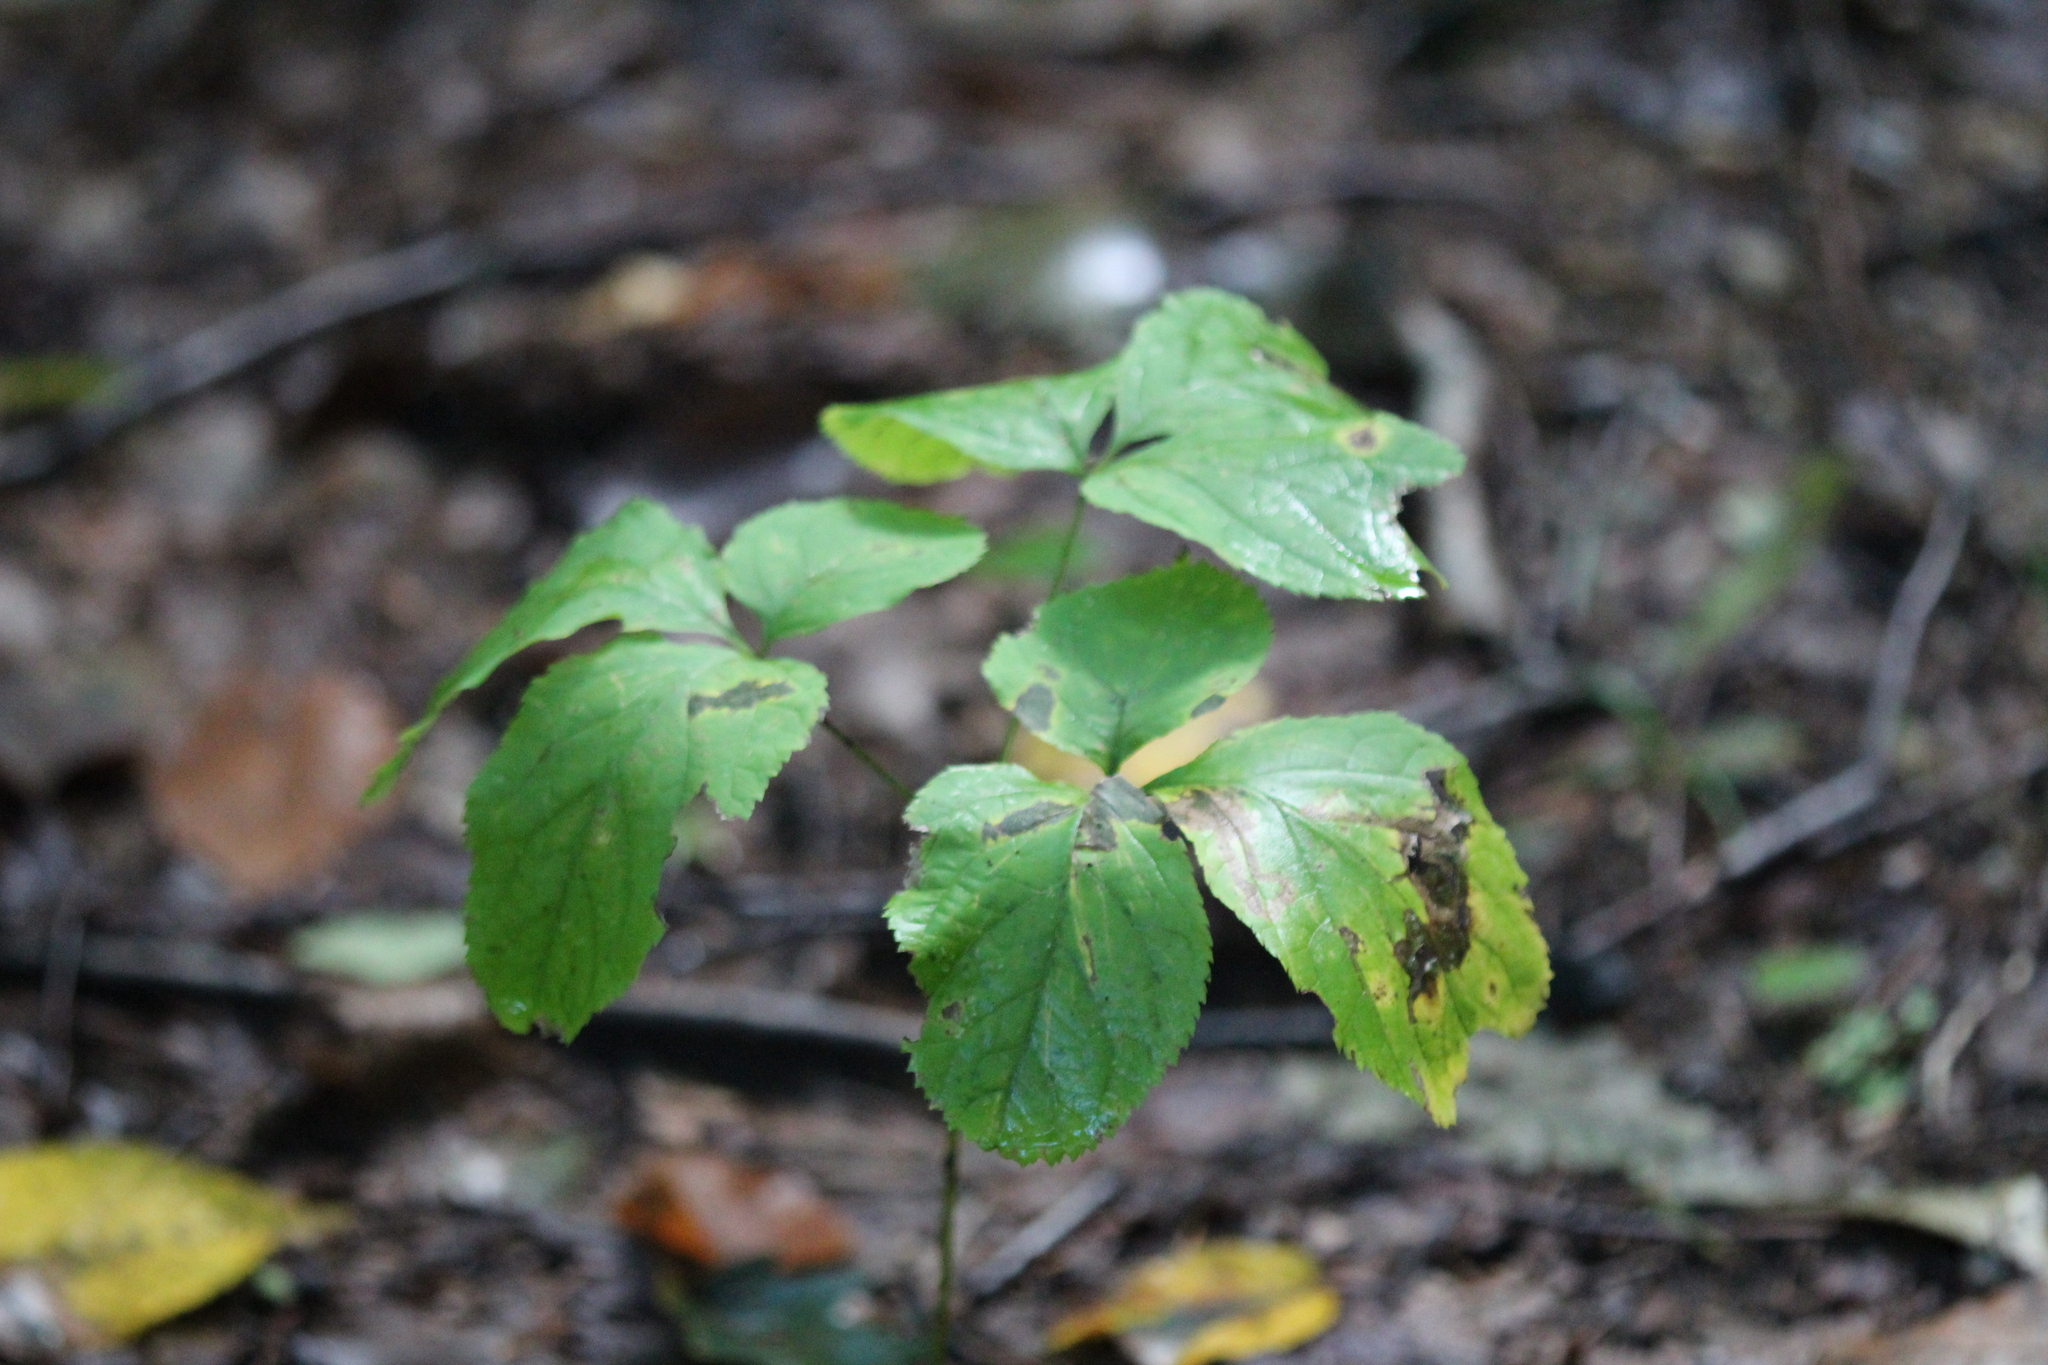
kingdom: Plantae
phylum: Tracheophyta
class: Magnoliopsida
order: Apiales
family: Araliaceae
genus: Aralia
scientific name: Aralia nudicaulis
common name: Wild sarsaparilla
